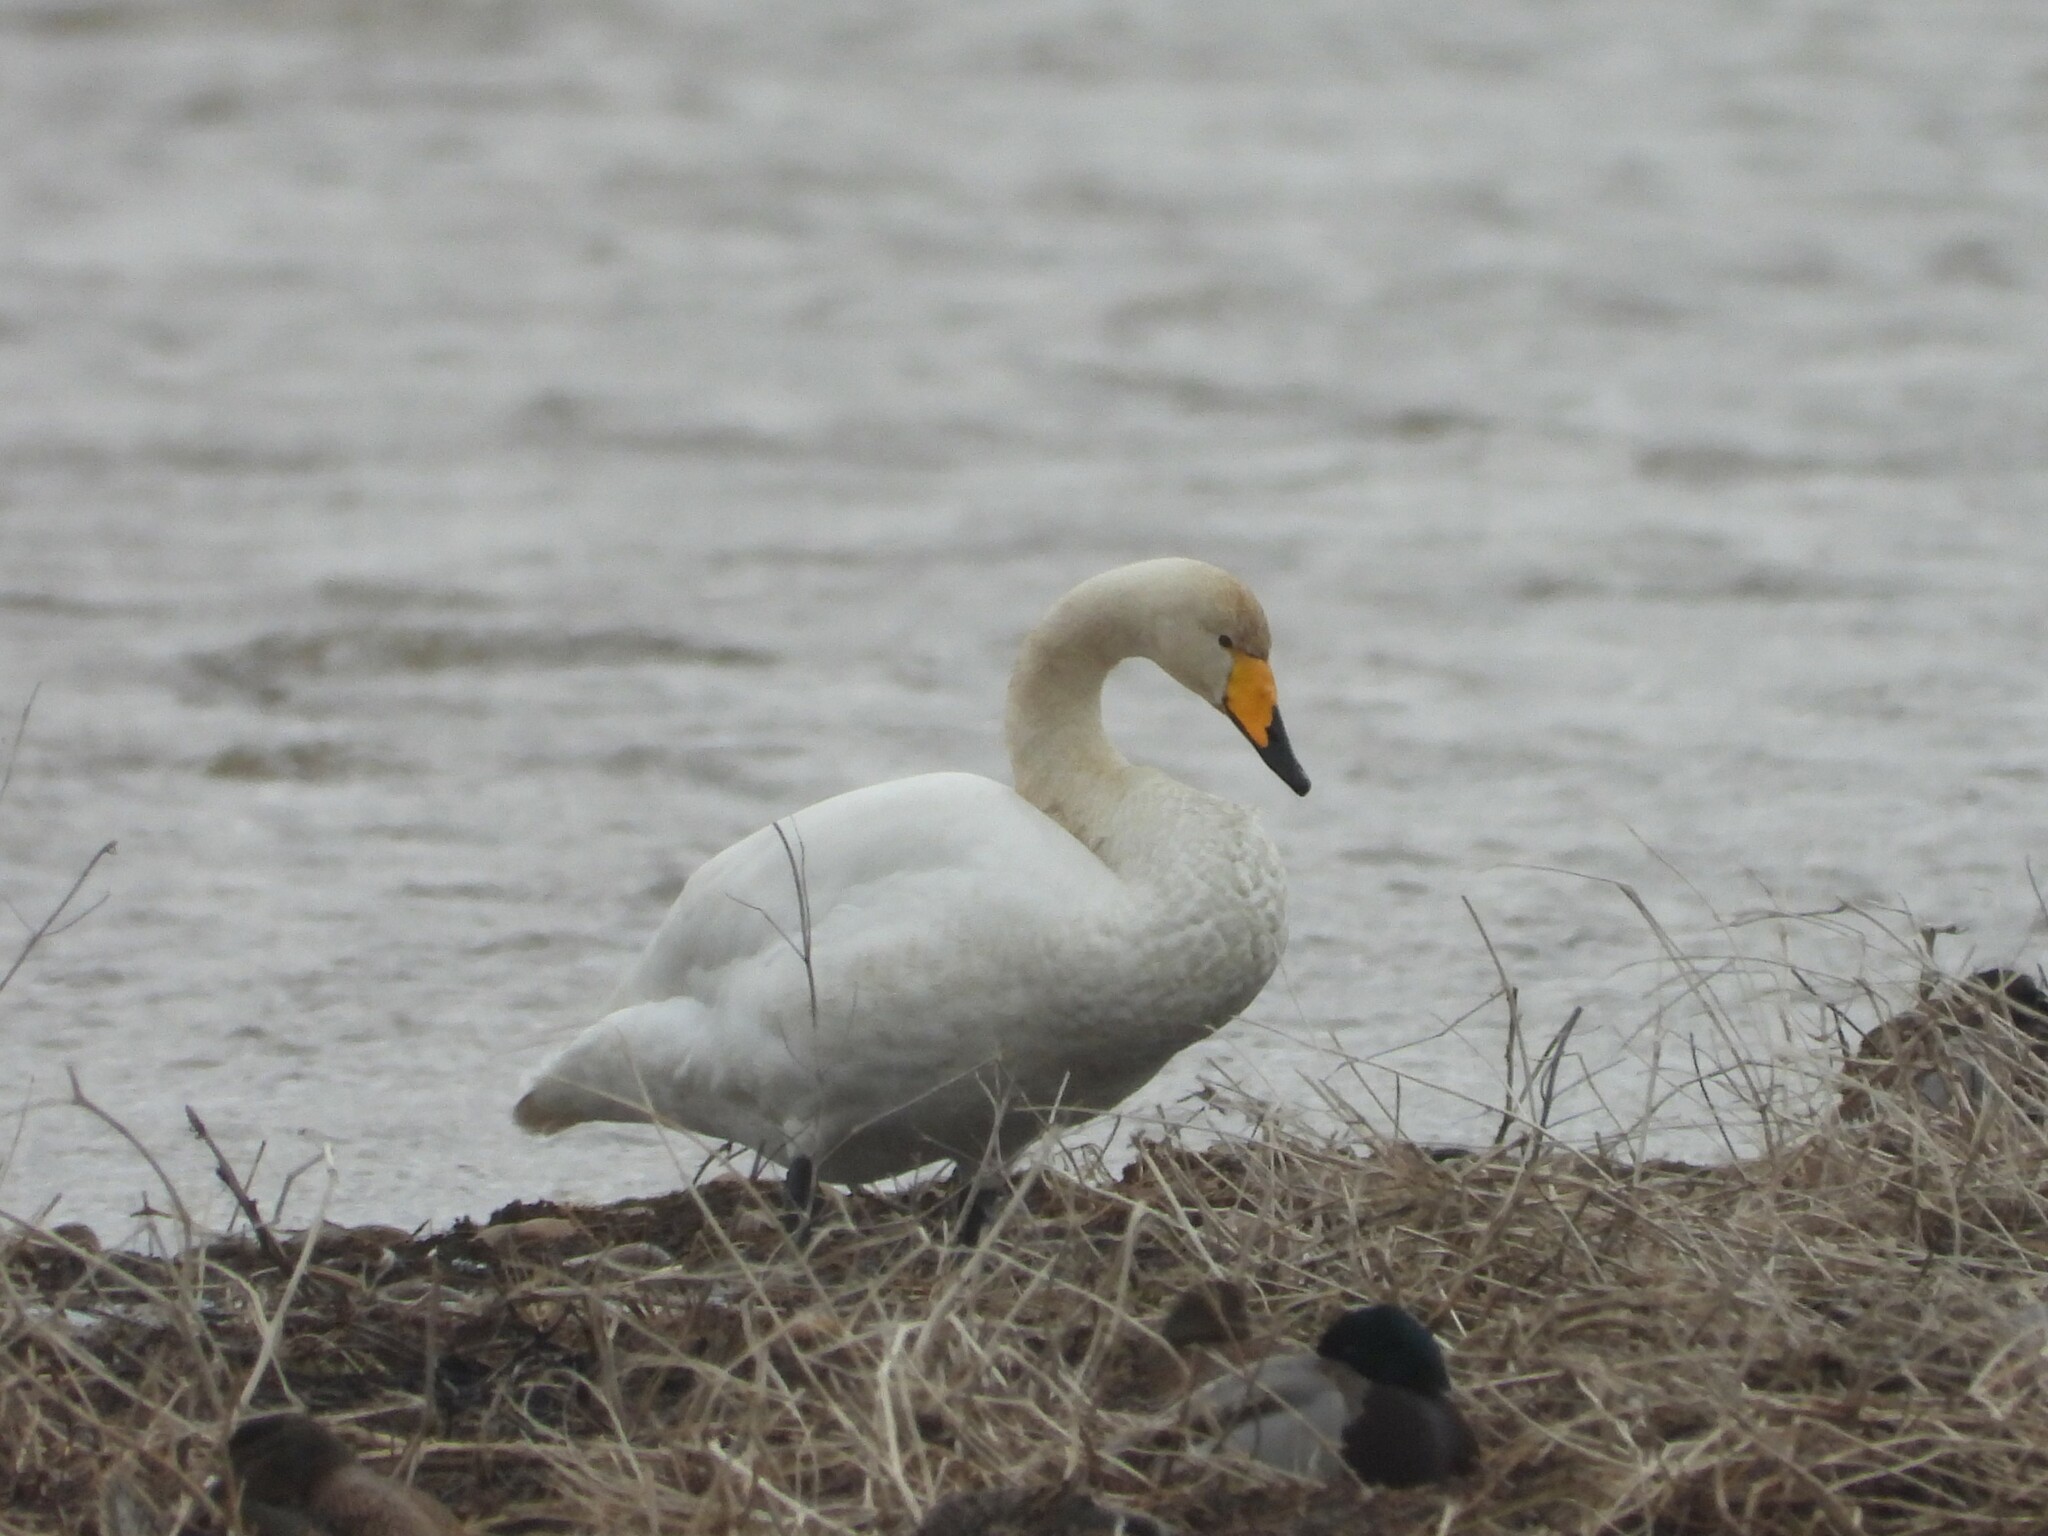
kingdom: Animalia
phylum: Chordata
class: Aves
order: Anseriformes
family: Anatidae
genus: Cygnus
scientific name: Cygnus cygnus
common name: Whooper swan
